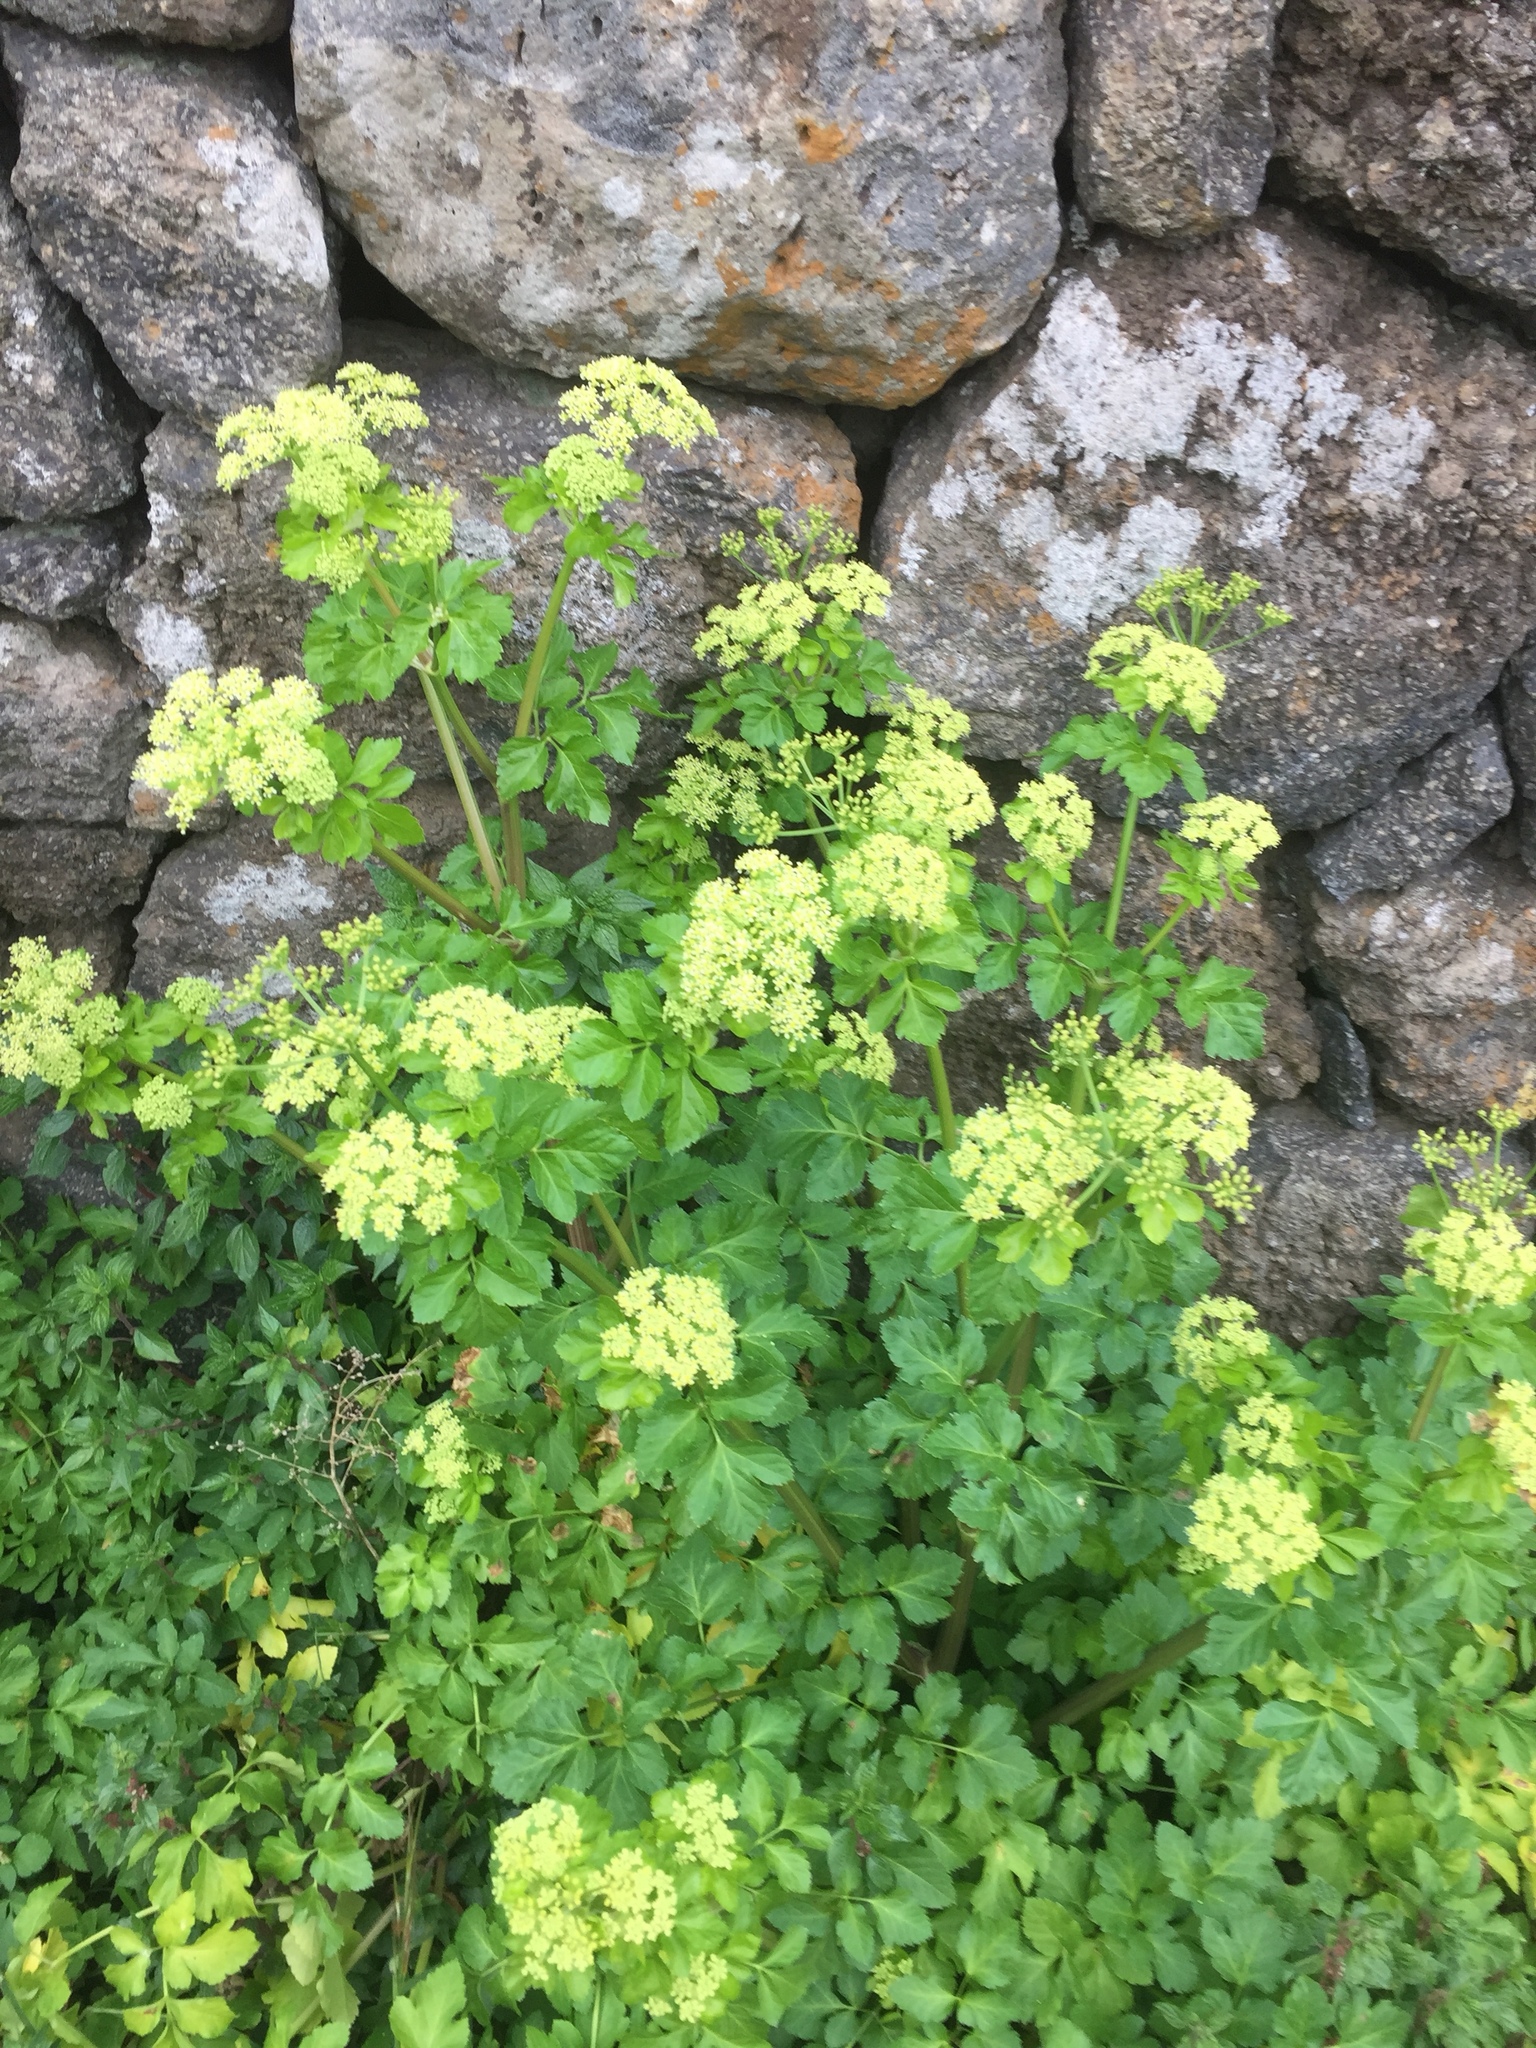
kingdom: Plantae
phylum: Tracheophyta
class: Magnoliopsida
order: Apiales
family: Apiaceae
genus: Smyrnium
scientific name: Smyrnium olusatrum
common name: Alexanders
